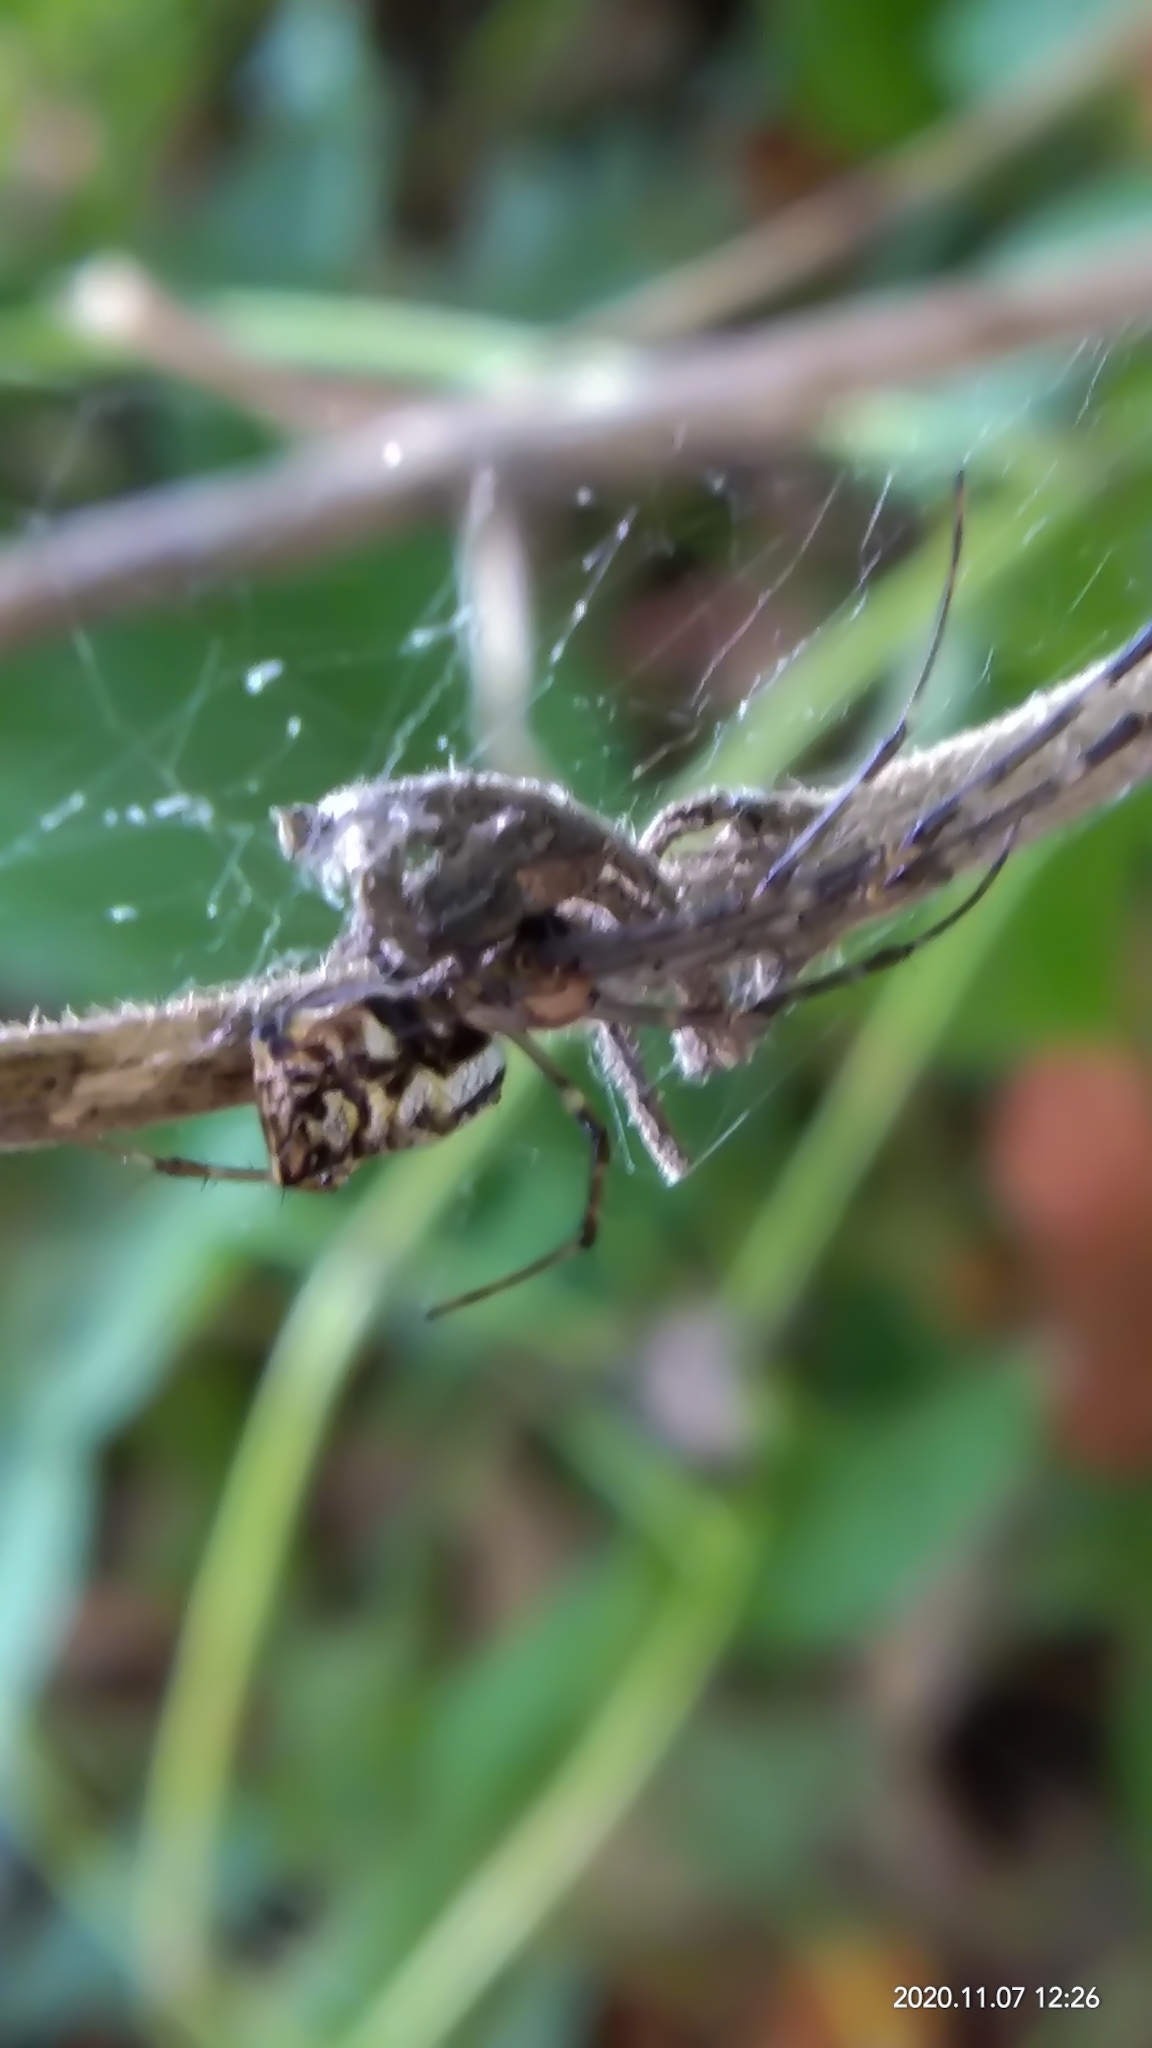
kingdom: Animalia
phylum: Arthropoda
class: Arachnida
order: Araneae
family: Tetragnathidae
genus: Tylorida
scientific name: Tylorida ventralis
